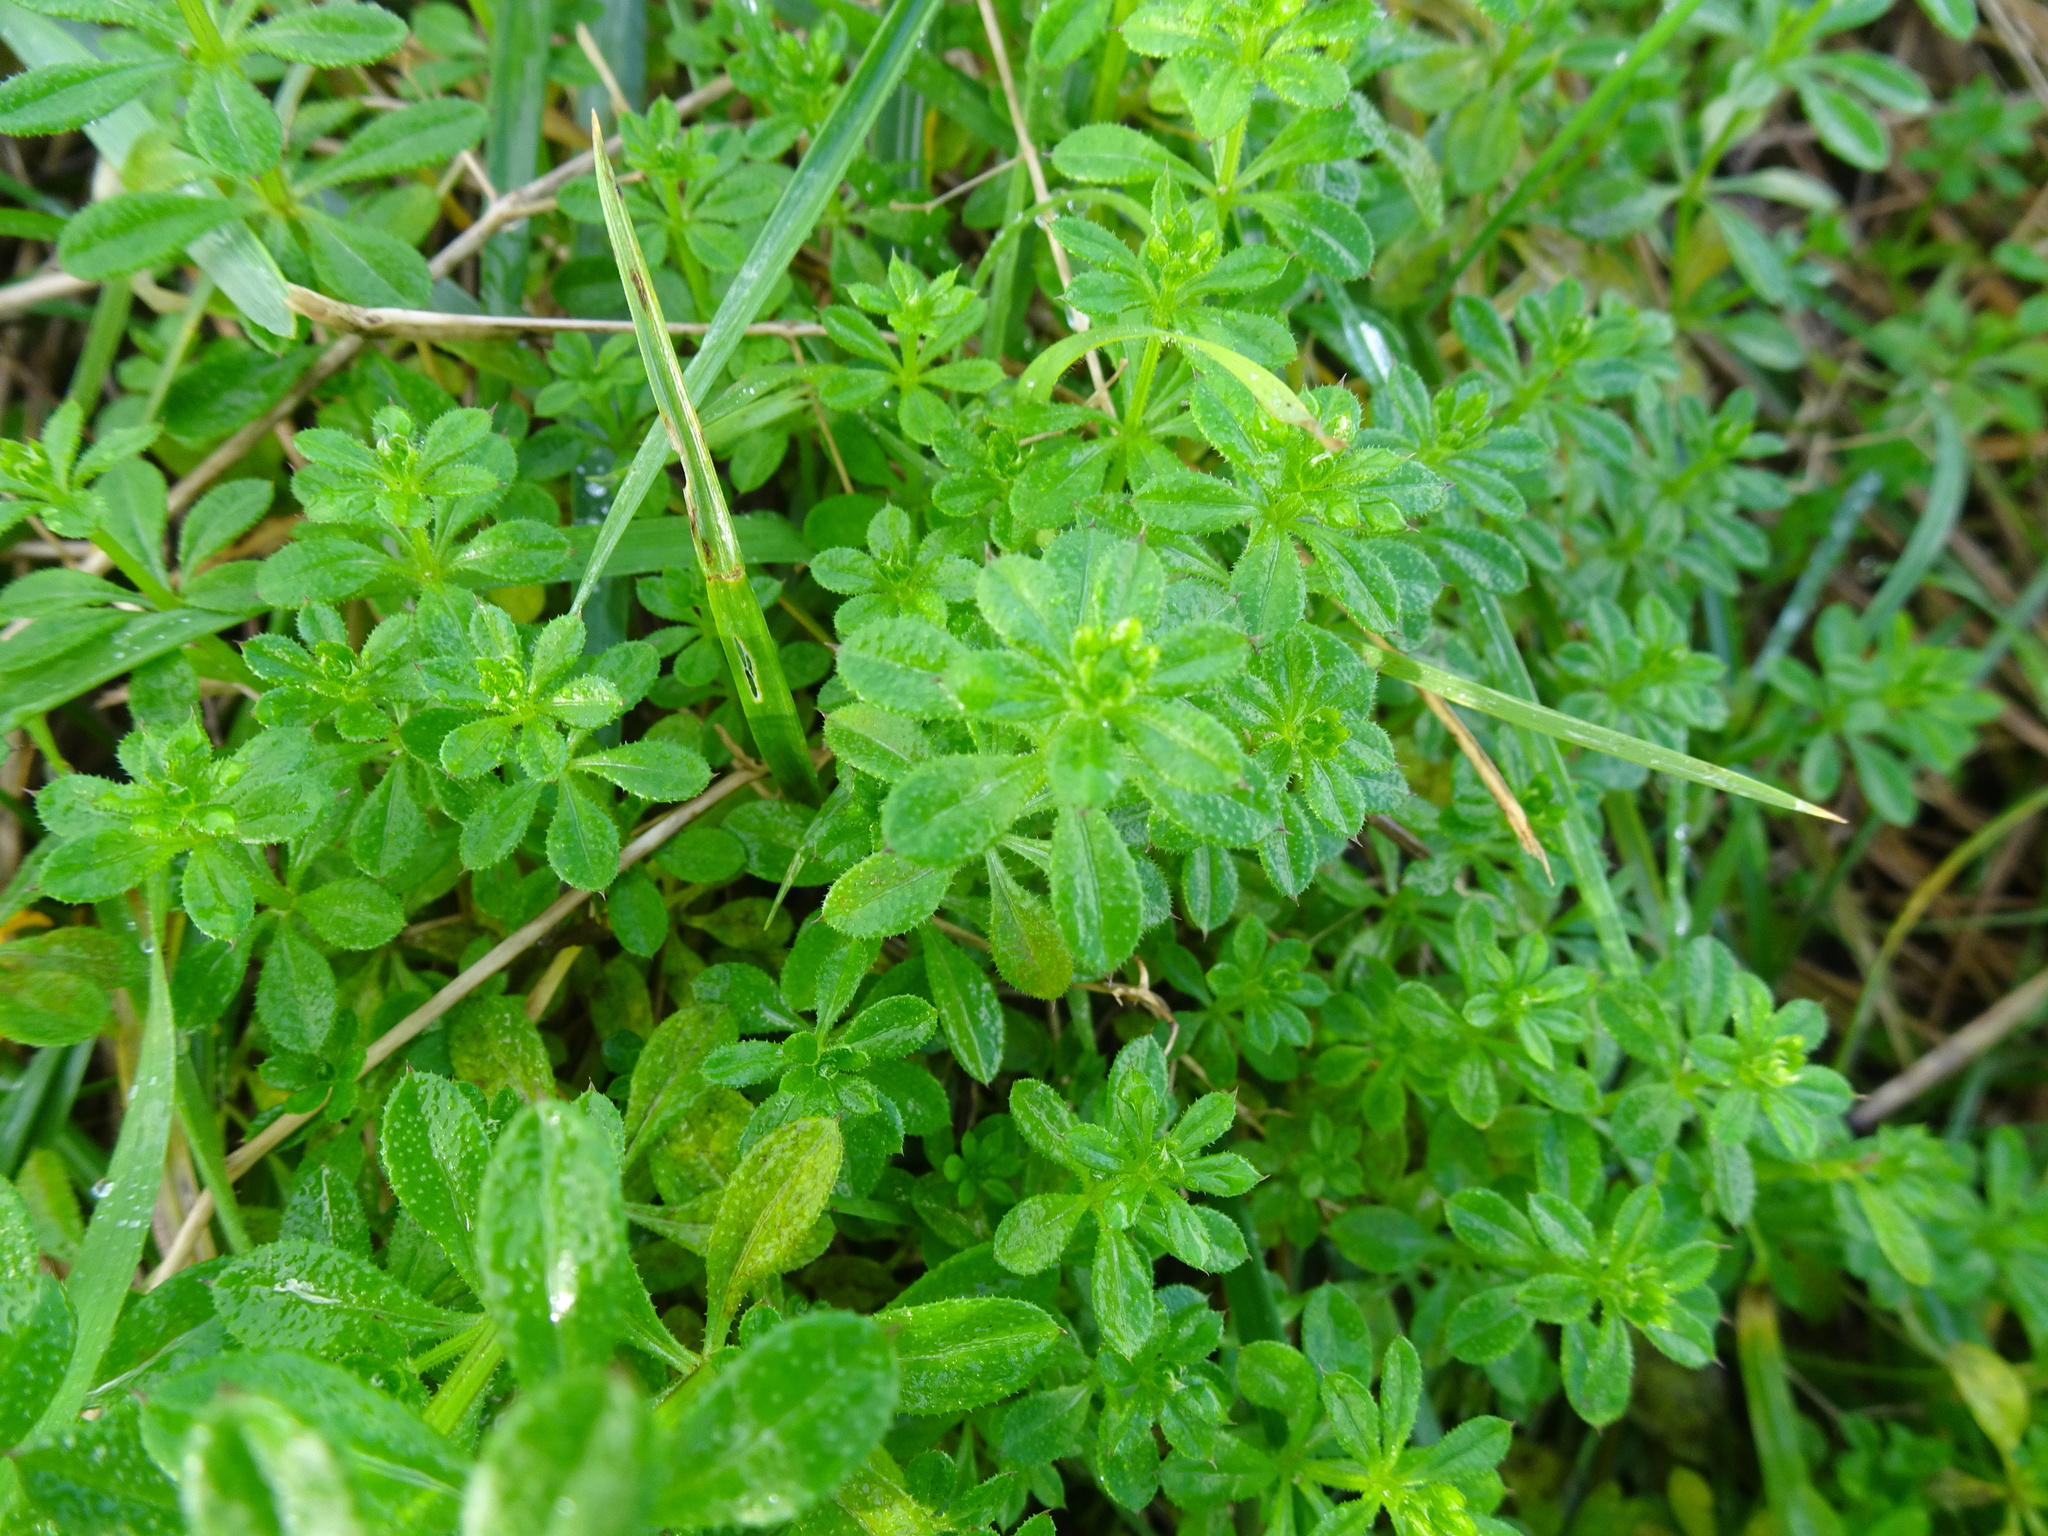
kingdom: Plantae
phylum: Tracheophyta
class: Magnoliopsida
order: Gentianales
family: Rubiaceae
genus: Galium
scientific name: Galium aparine
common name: Cleavers
